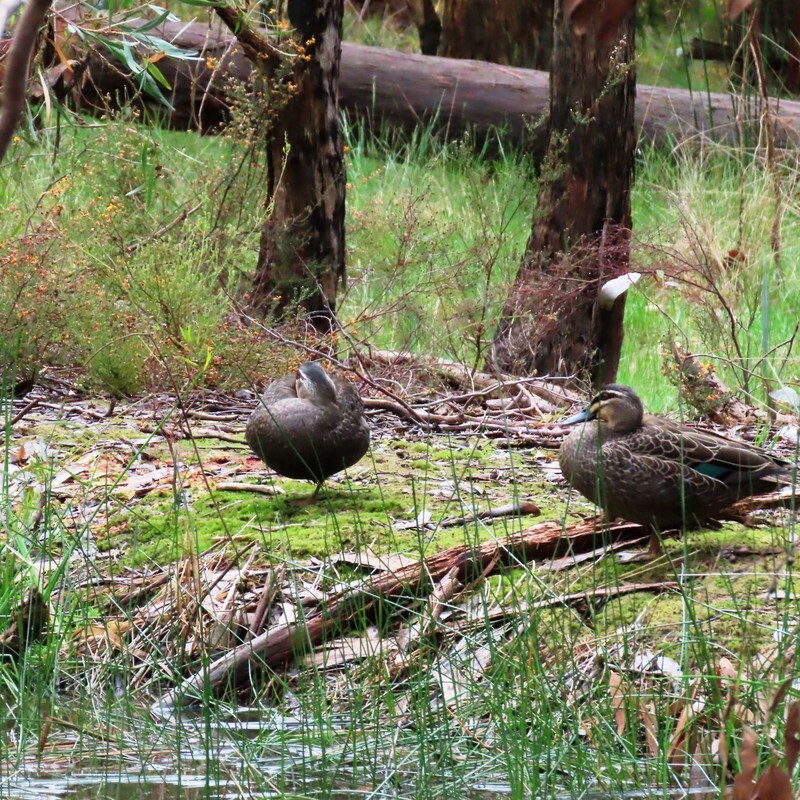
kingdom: Animalia
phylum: Chordata
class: Aves
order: Anseriformes
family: Anatidae
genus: Anas
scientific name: Anas superciliosa
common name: Pacific black duck
